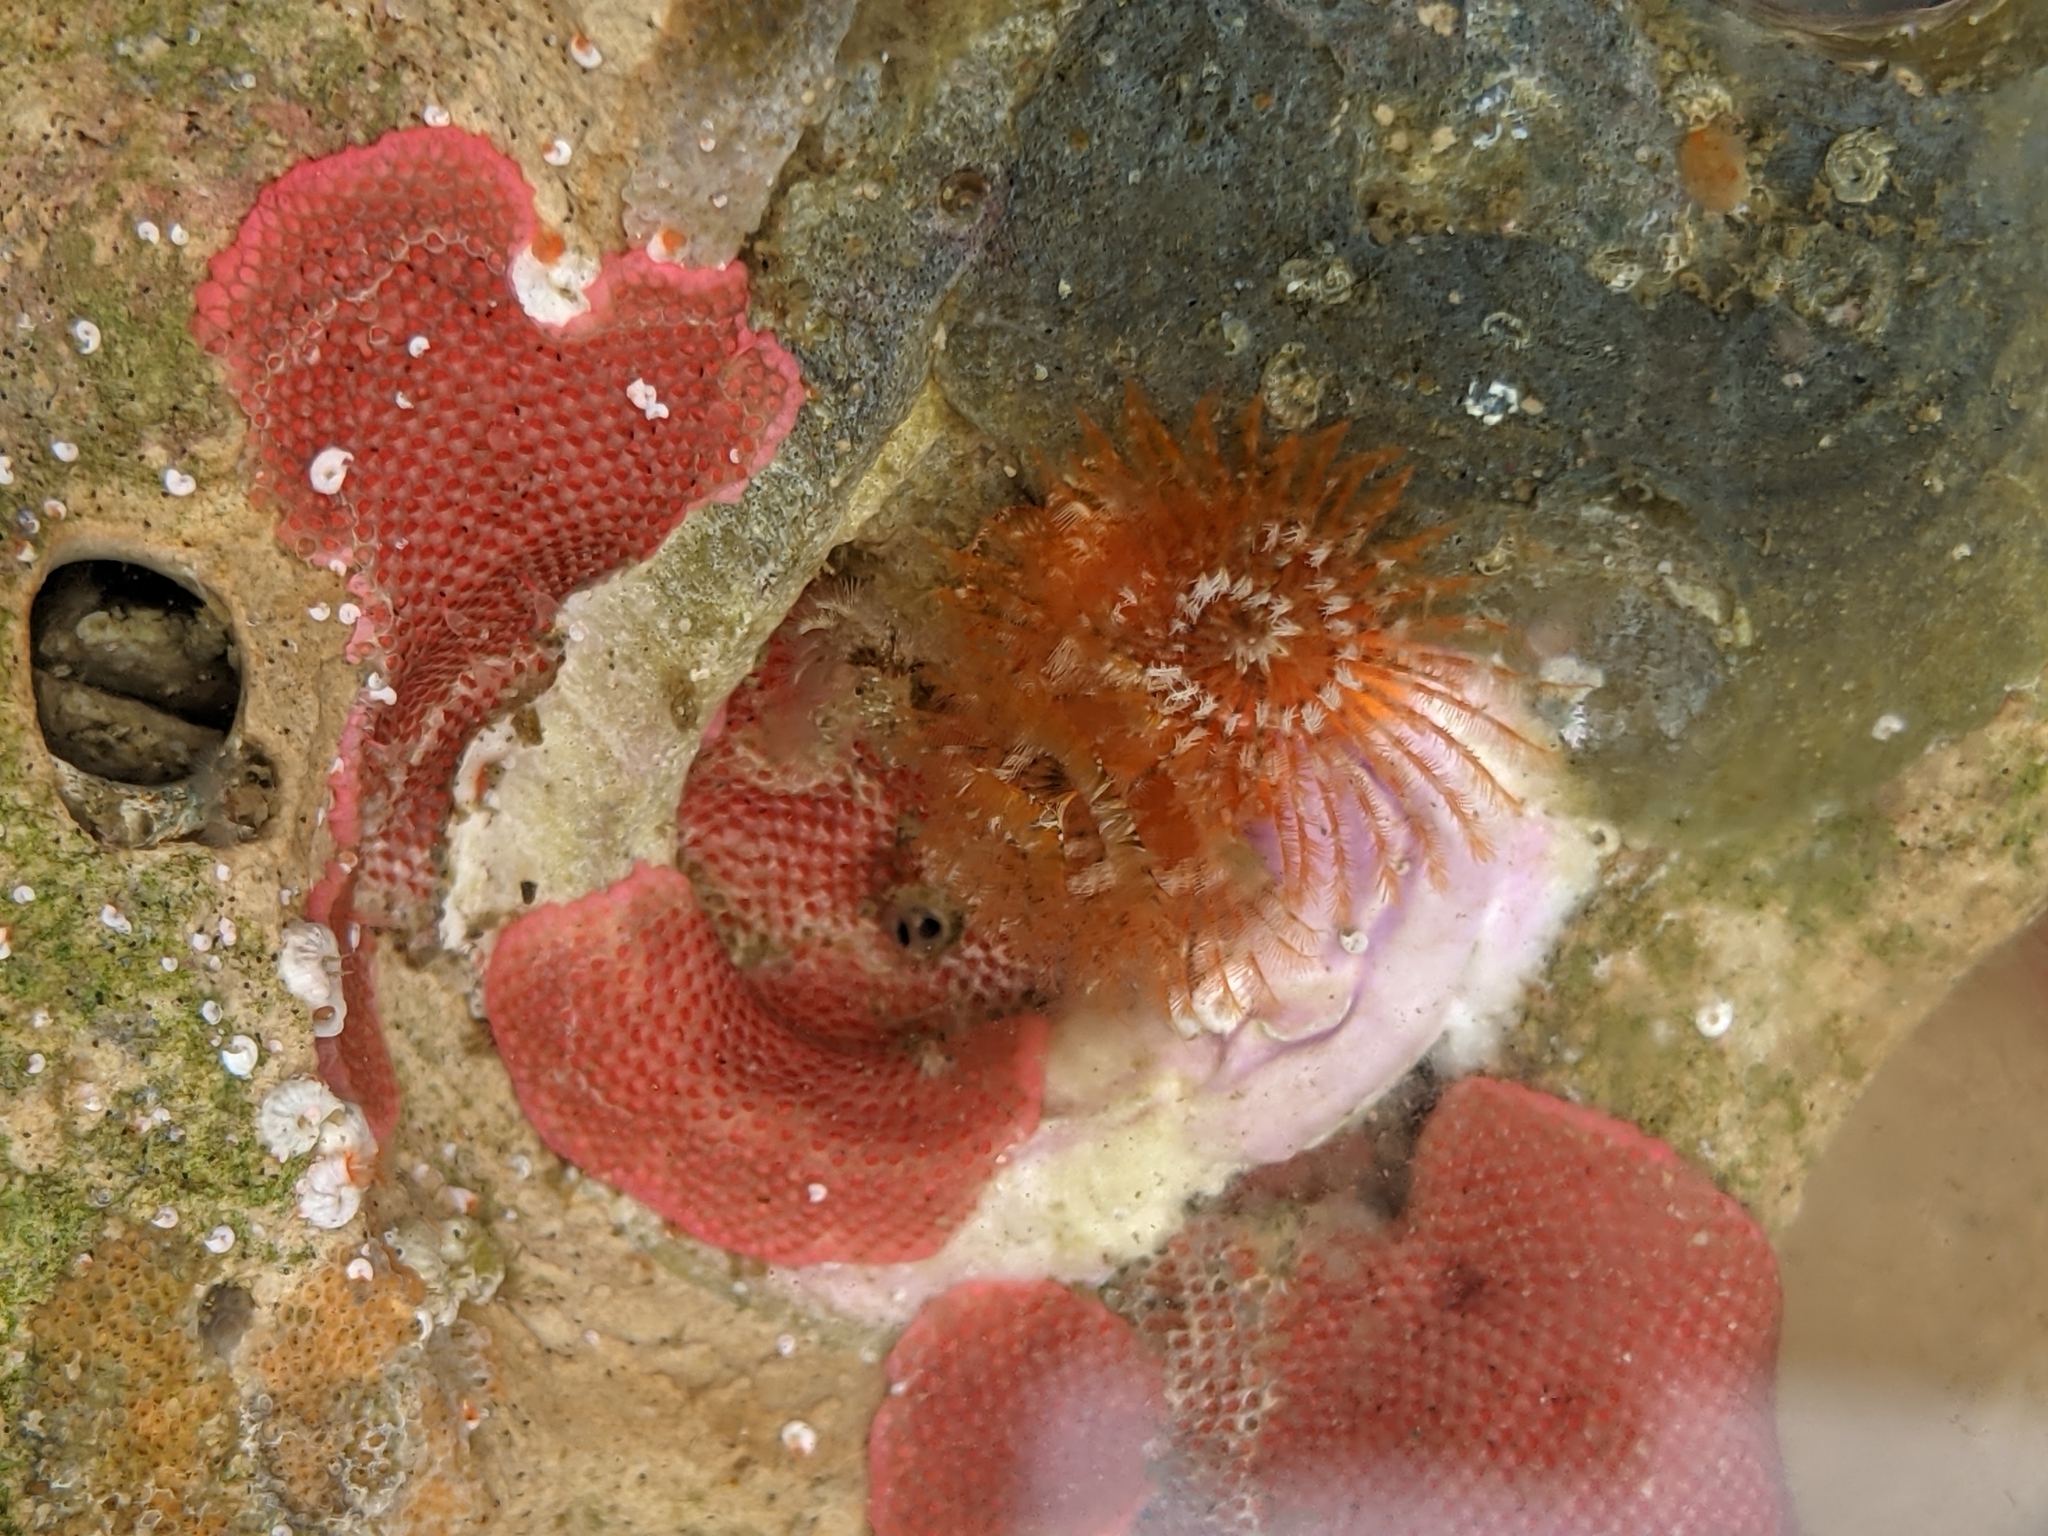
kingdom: Animalia
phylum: Annelida
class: Polychaeta
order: Sabellida
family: Serpulidae
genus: Spirobranchus
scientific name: Spirobranchus spinosus
